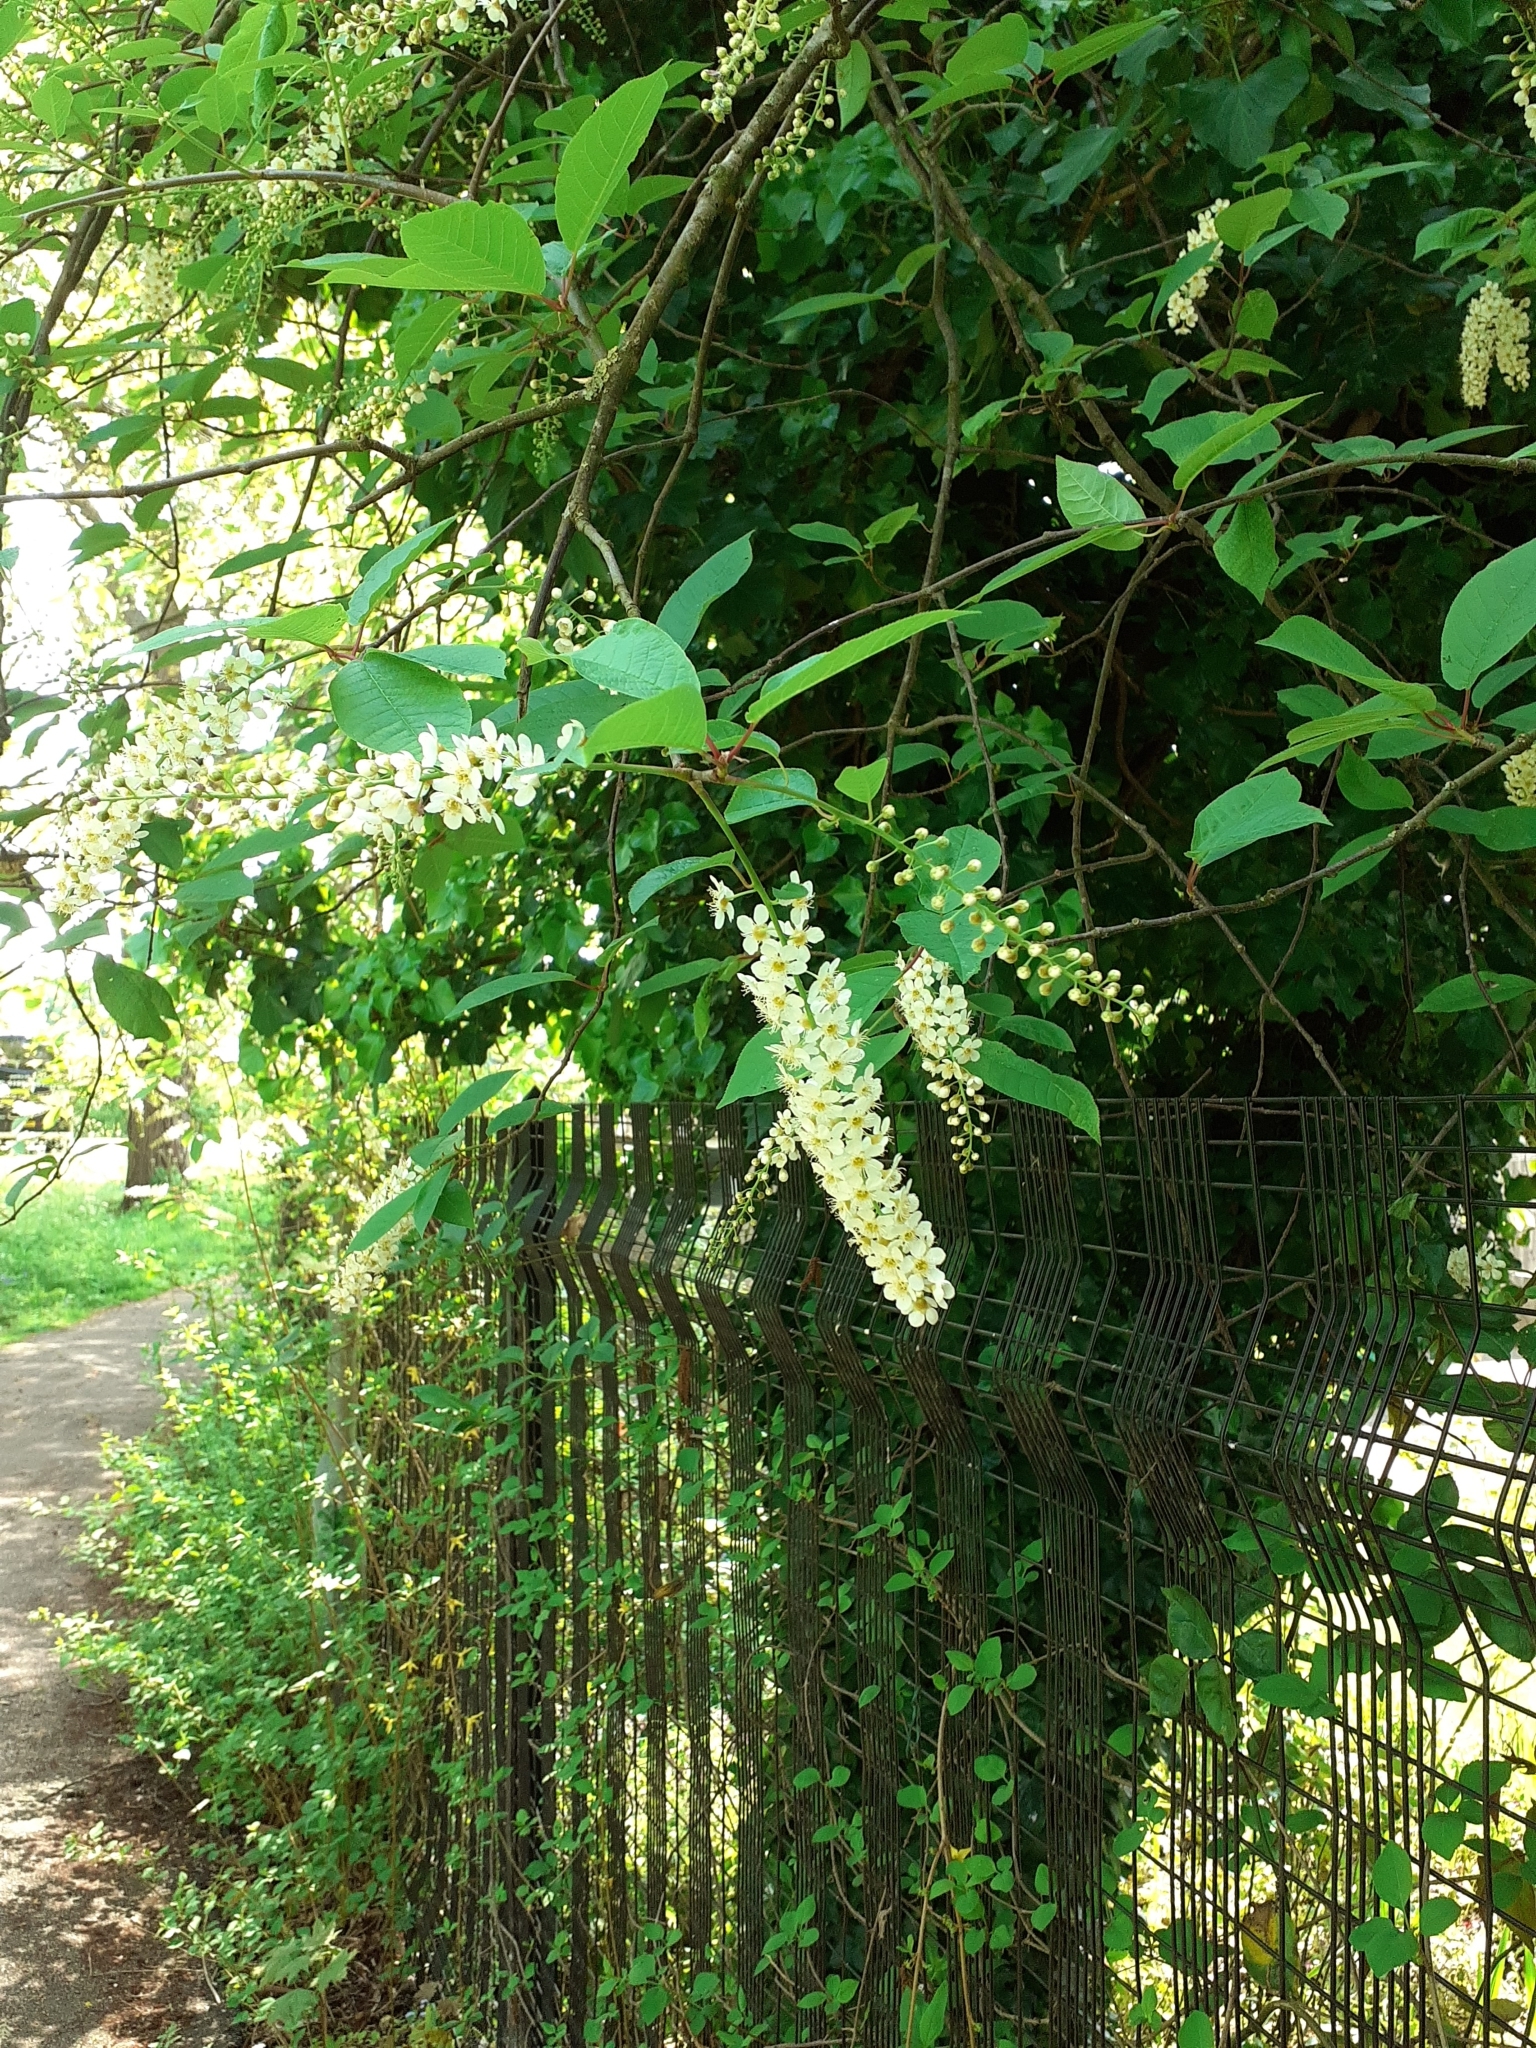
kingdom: Plantae
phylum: Tracheophyta
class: Magnoliopsida
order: Rosales
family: Rosaceae
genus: Prunus
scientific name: Prunus padus
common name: Bird cherry
